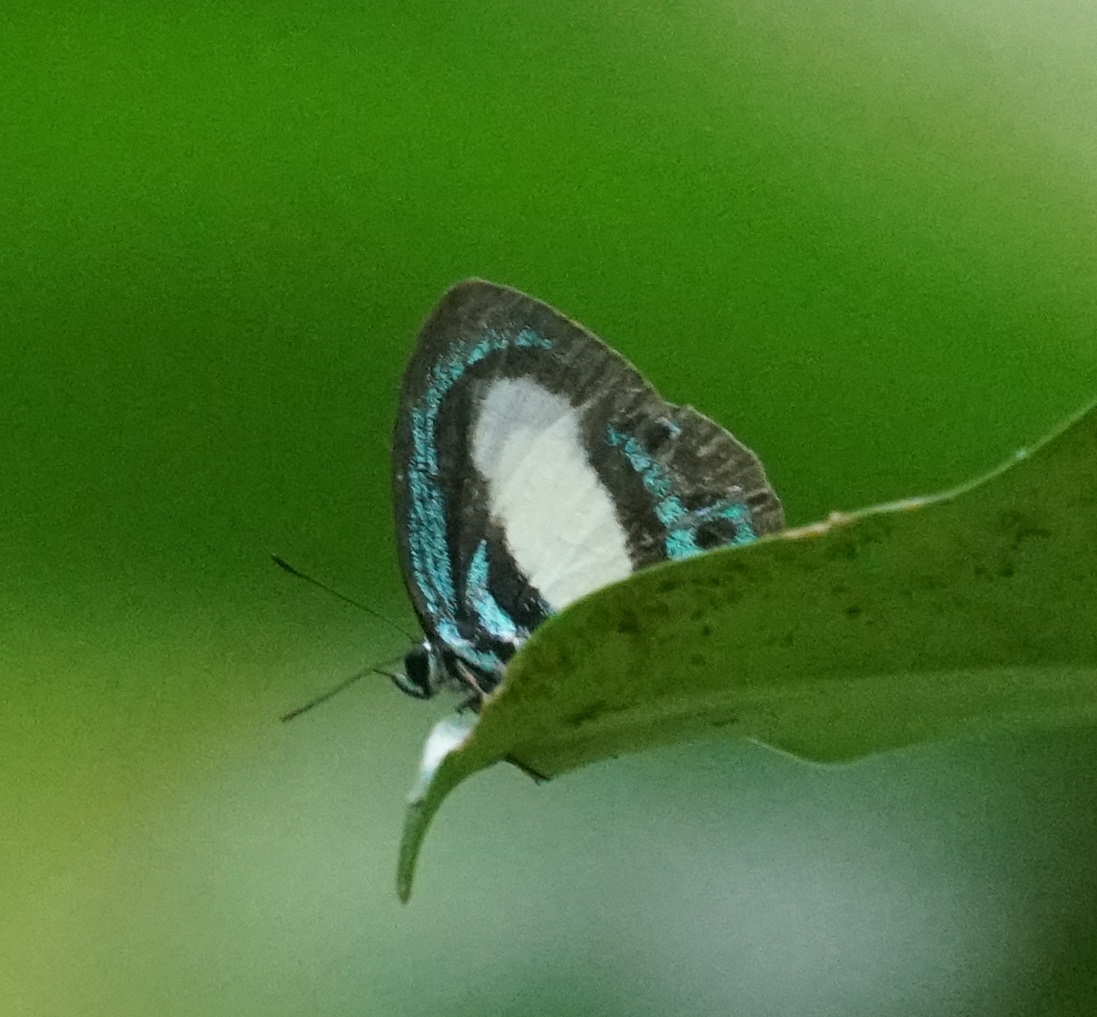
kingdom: Animalia
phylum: Arthropoda
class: Insecta
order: Lepidoptera
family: Lycaenidae
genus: Danis
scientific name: Danis danis
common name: Large green-banded blue
